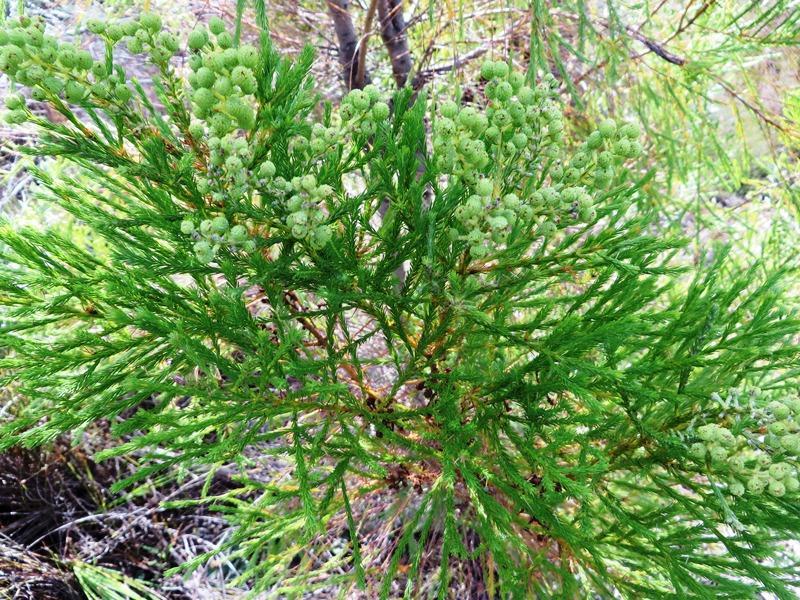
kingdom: Plantae
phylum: Tracheophyta
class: Magnoliopsida
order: Bruniales
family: Bruniaceae
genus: Berzelia
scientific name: Berzelia lanuginosa
